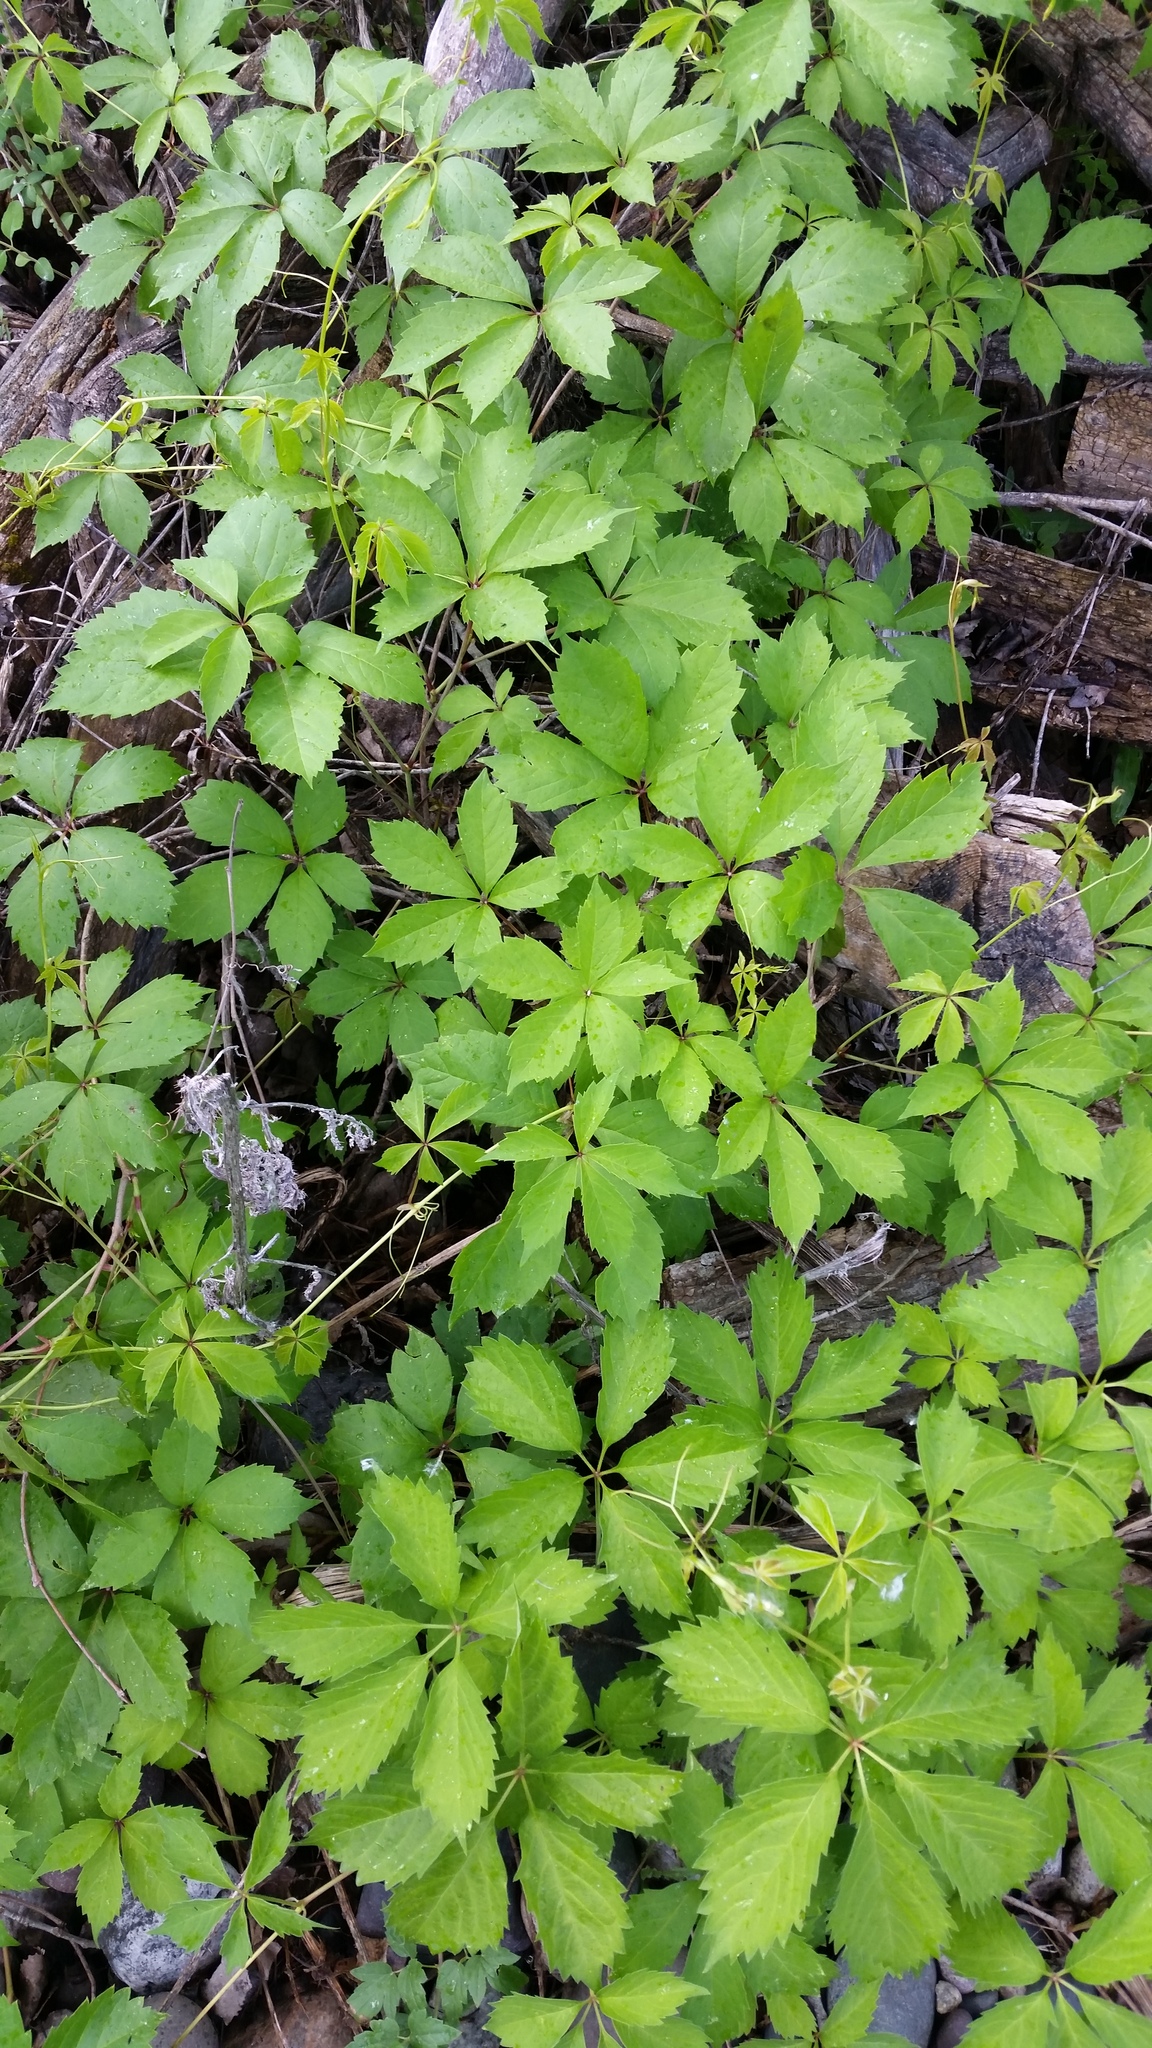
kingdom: Plantae
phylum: Tracheophyta
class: Magnoliopsida
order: Vitales
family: Vitaceae
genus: Parthenocissus
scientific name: Parthenocissus quinquefolia
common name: Virginia-creeper
